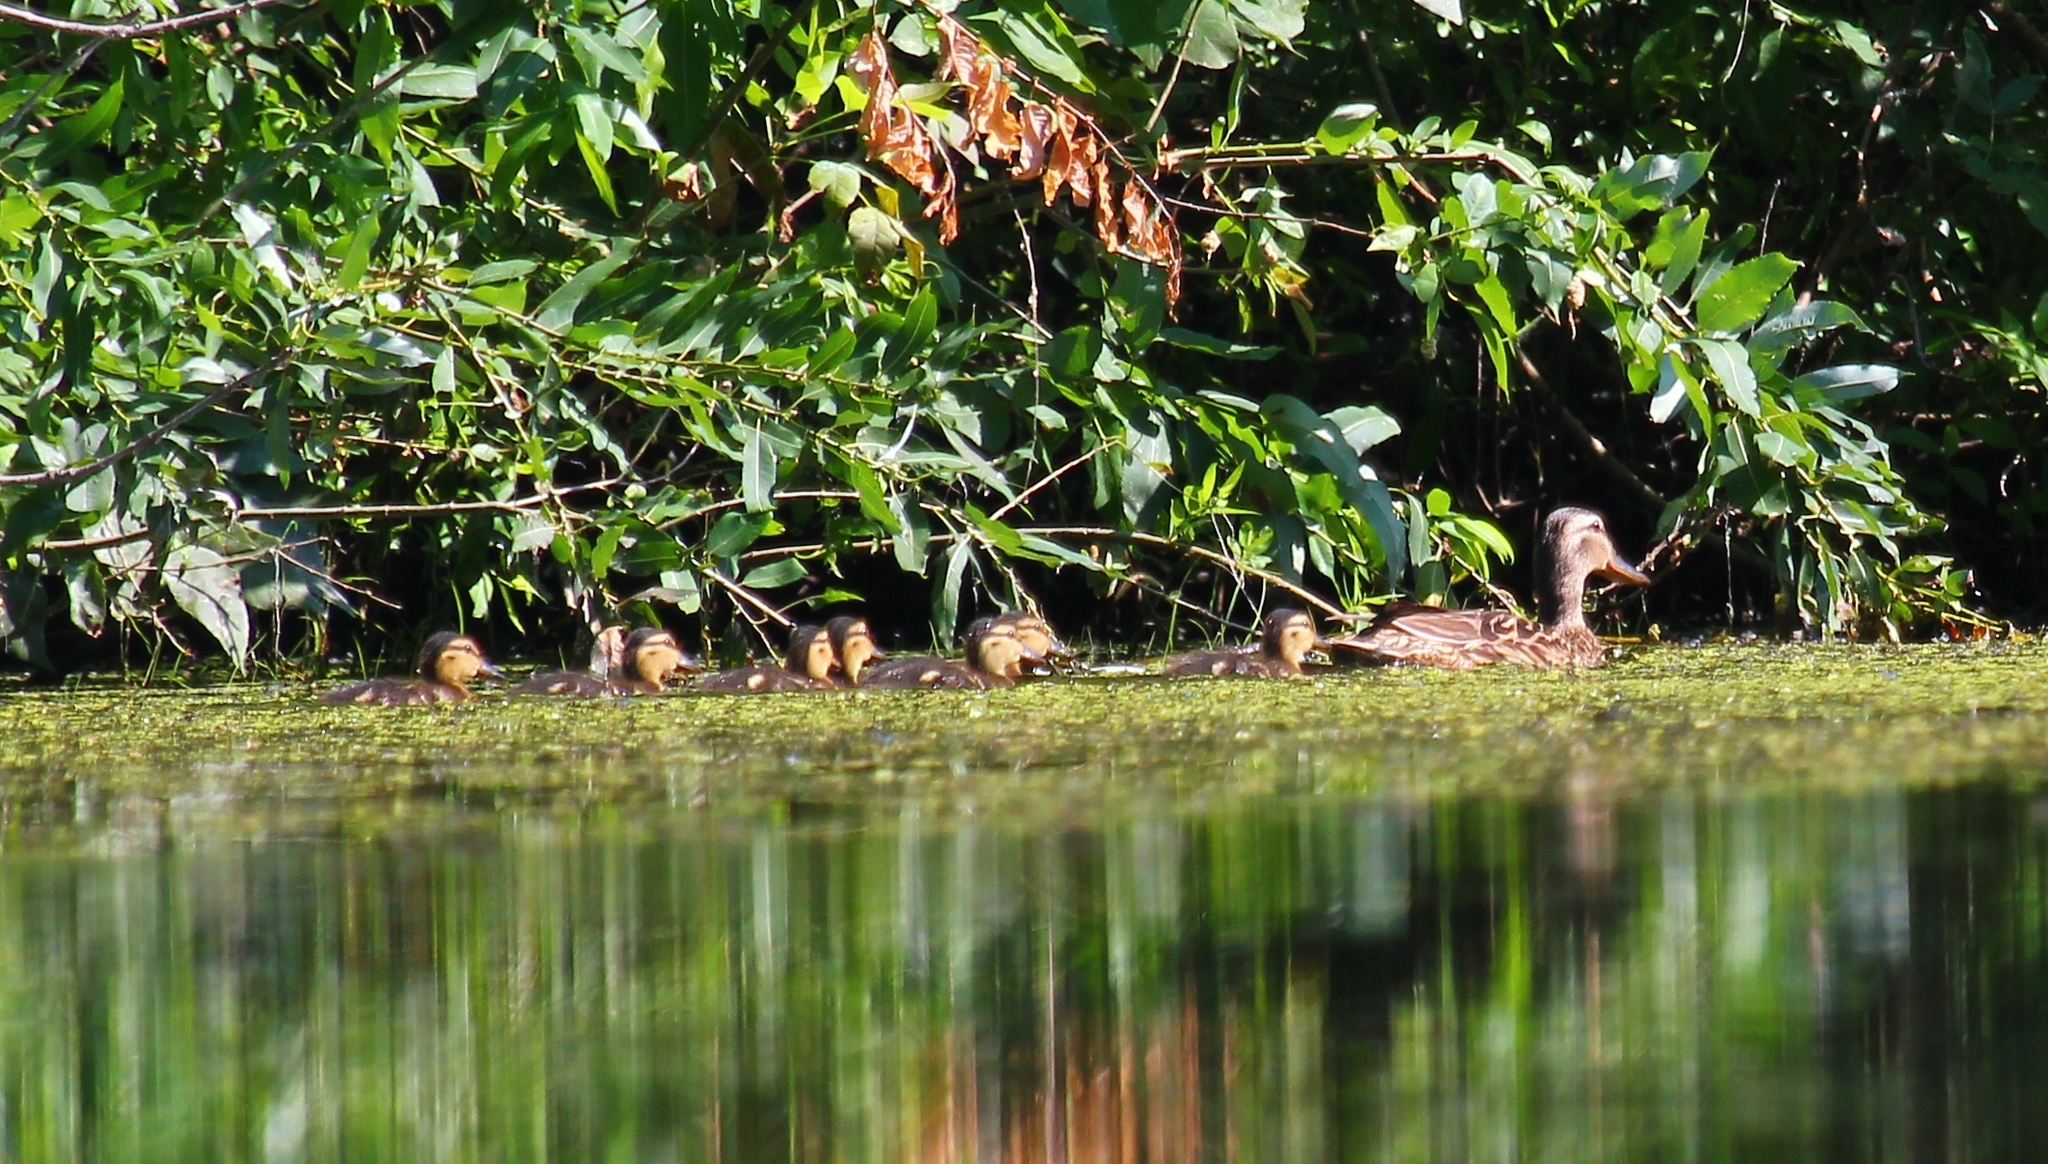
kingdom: Animalia
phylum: Chordata
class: Aves
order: Anseriformes
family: Anatidae
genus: Anas
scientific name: Anas platyrhynchos
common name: Mallard
